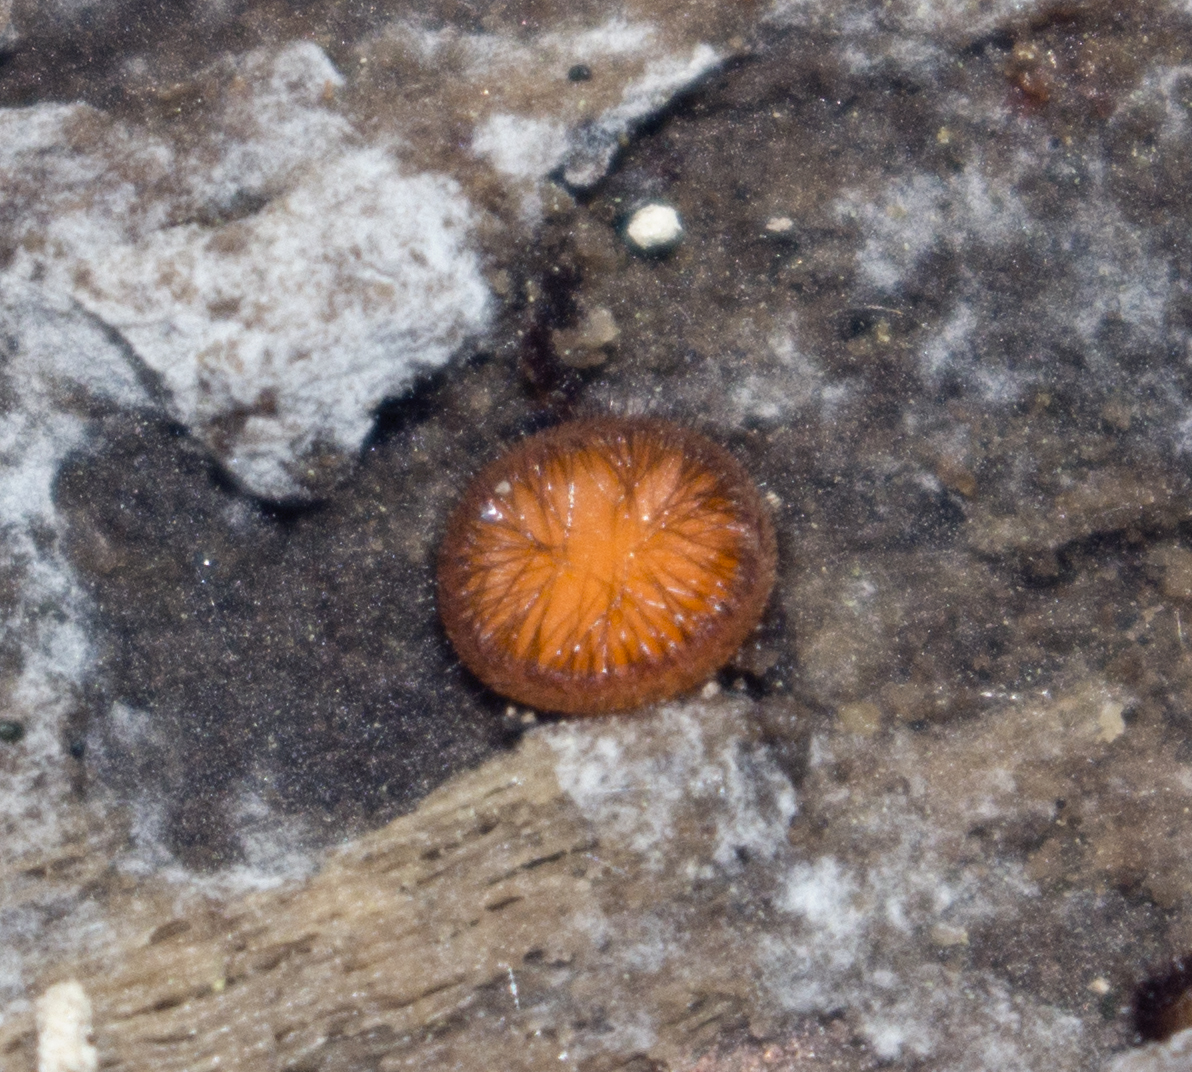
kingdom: Fungi
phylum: Ascomycota
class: Pezizomycetes
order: Pezizales
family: Pyronemataceae
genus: Scutellinia
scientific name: Scutellinia
